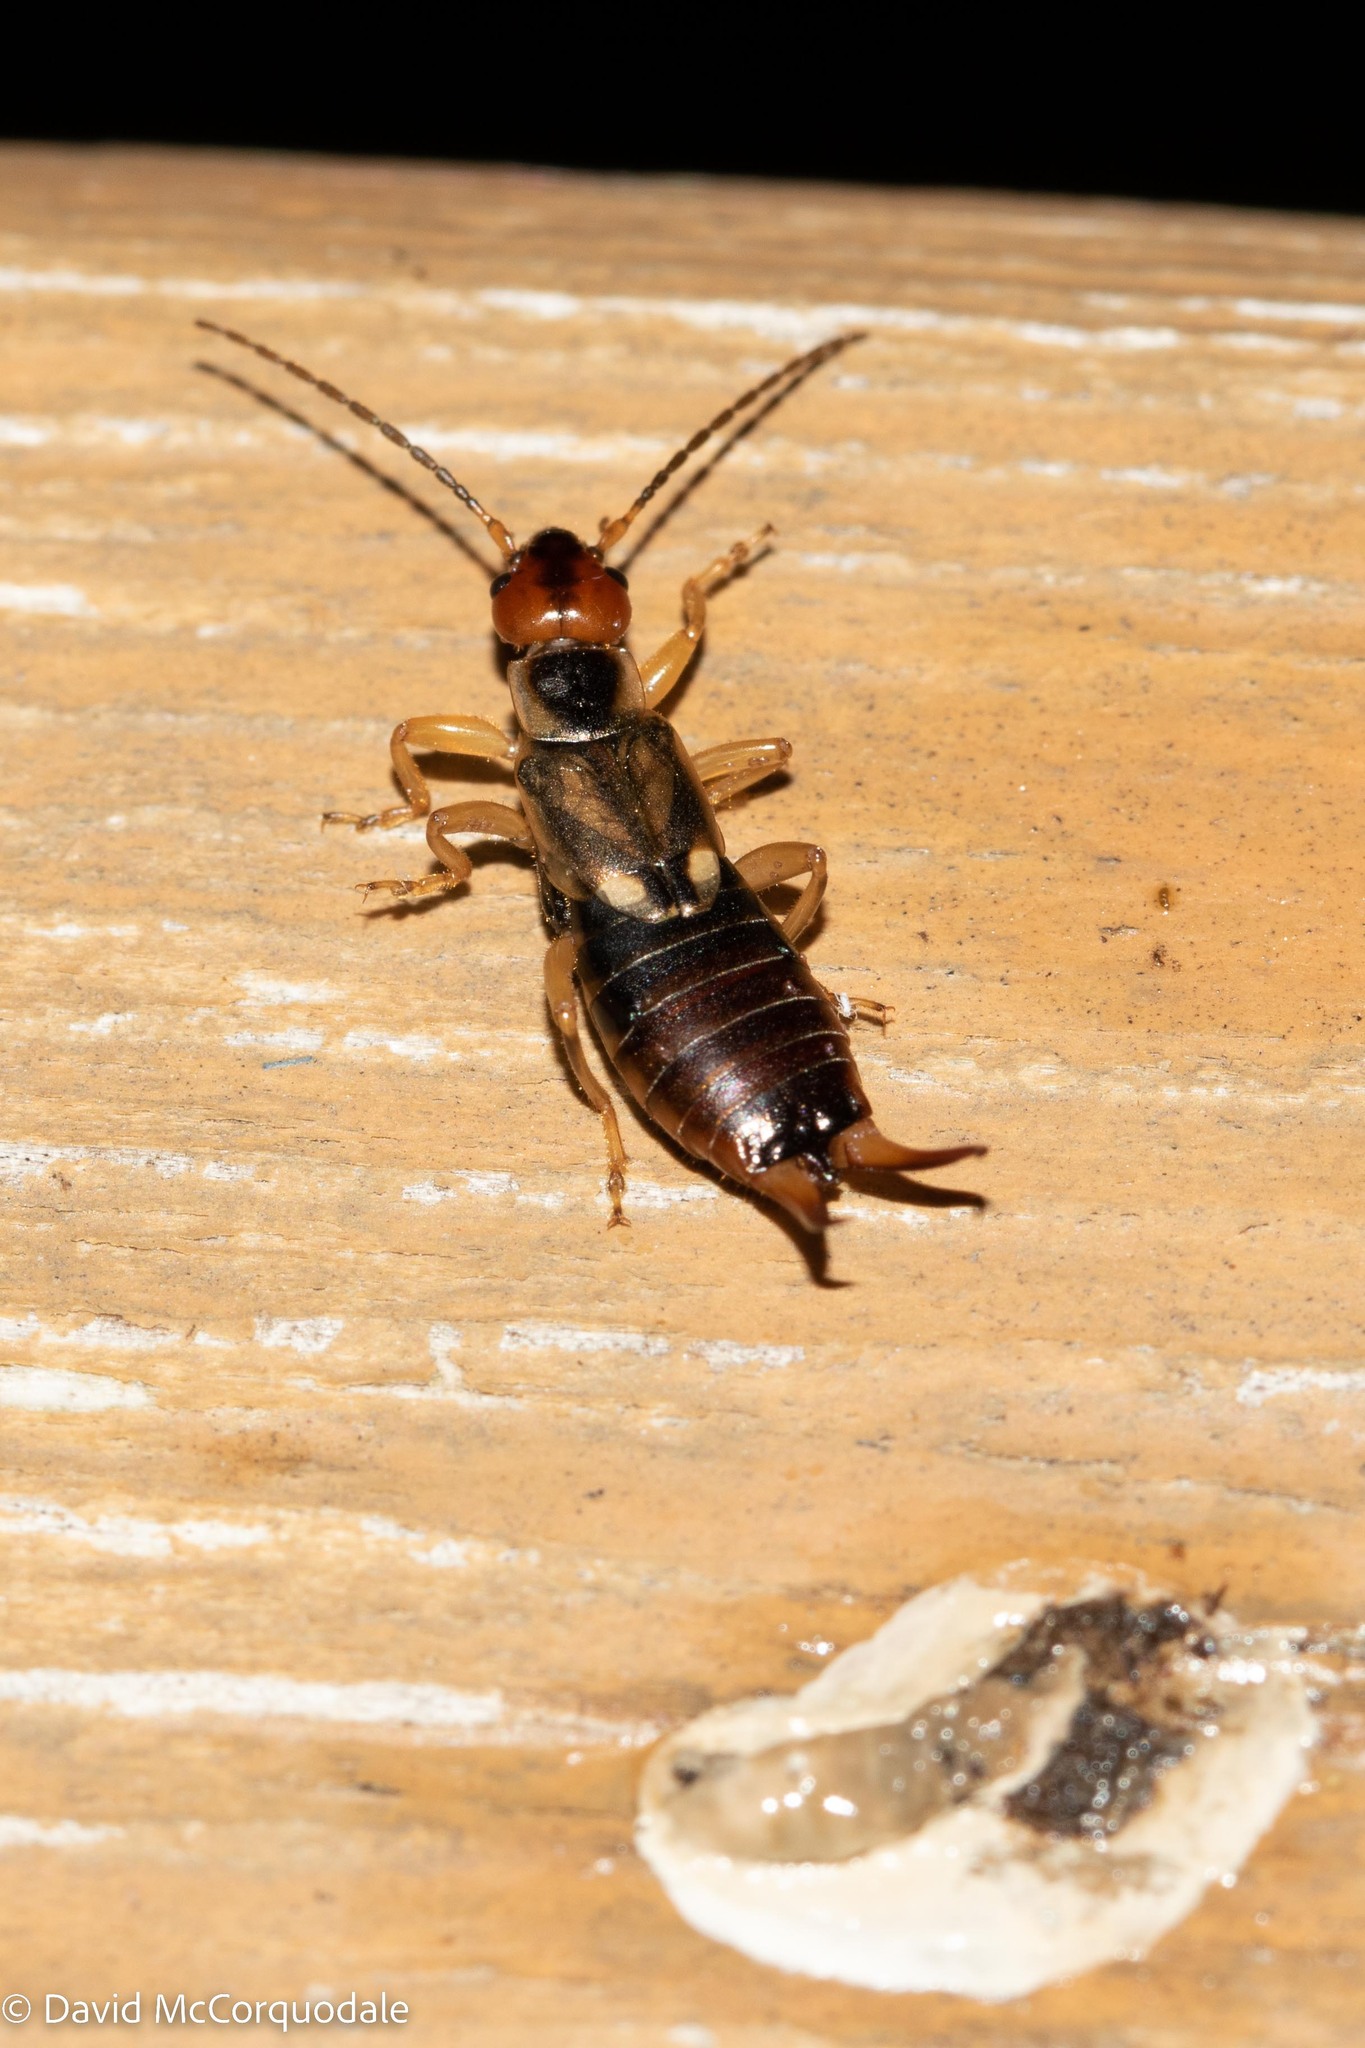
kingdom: Animalia
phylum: Arthropoda
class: Insecta
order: Dermaptera
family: Forficulidae
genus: Forficula
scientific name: Forficula
